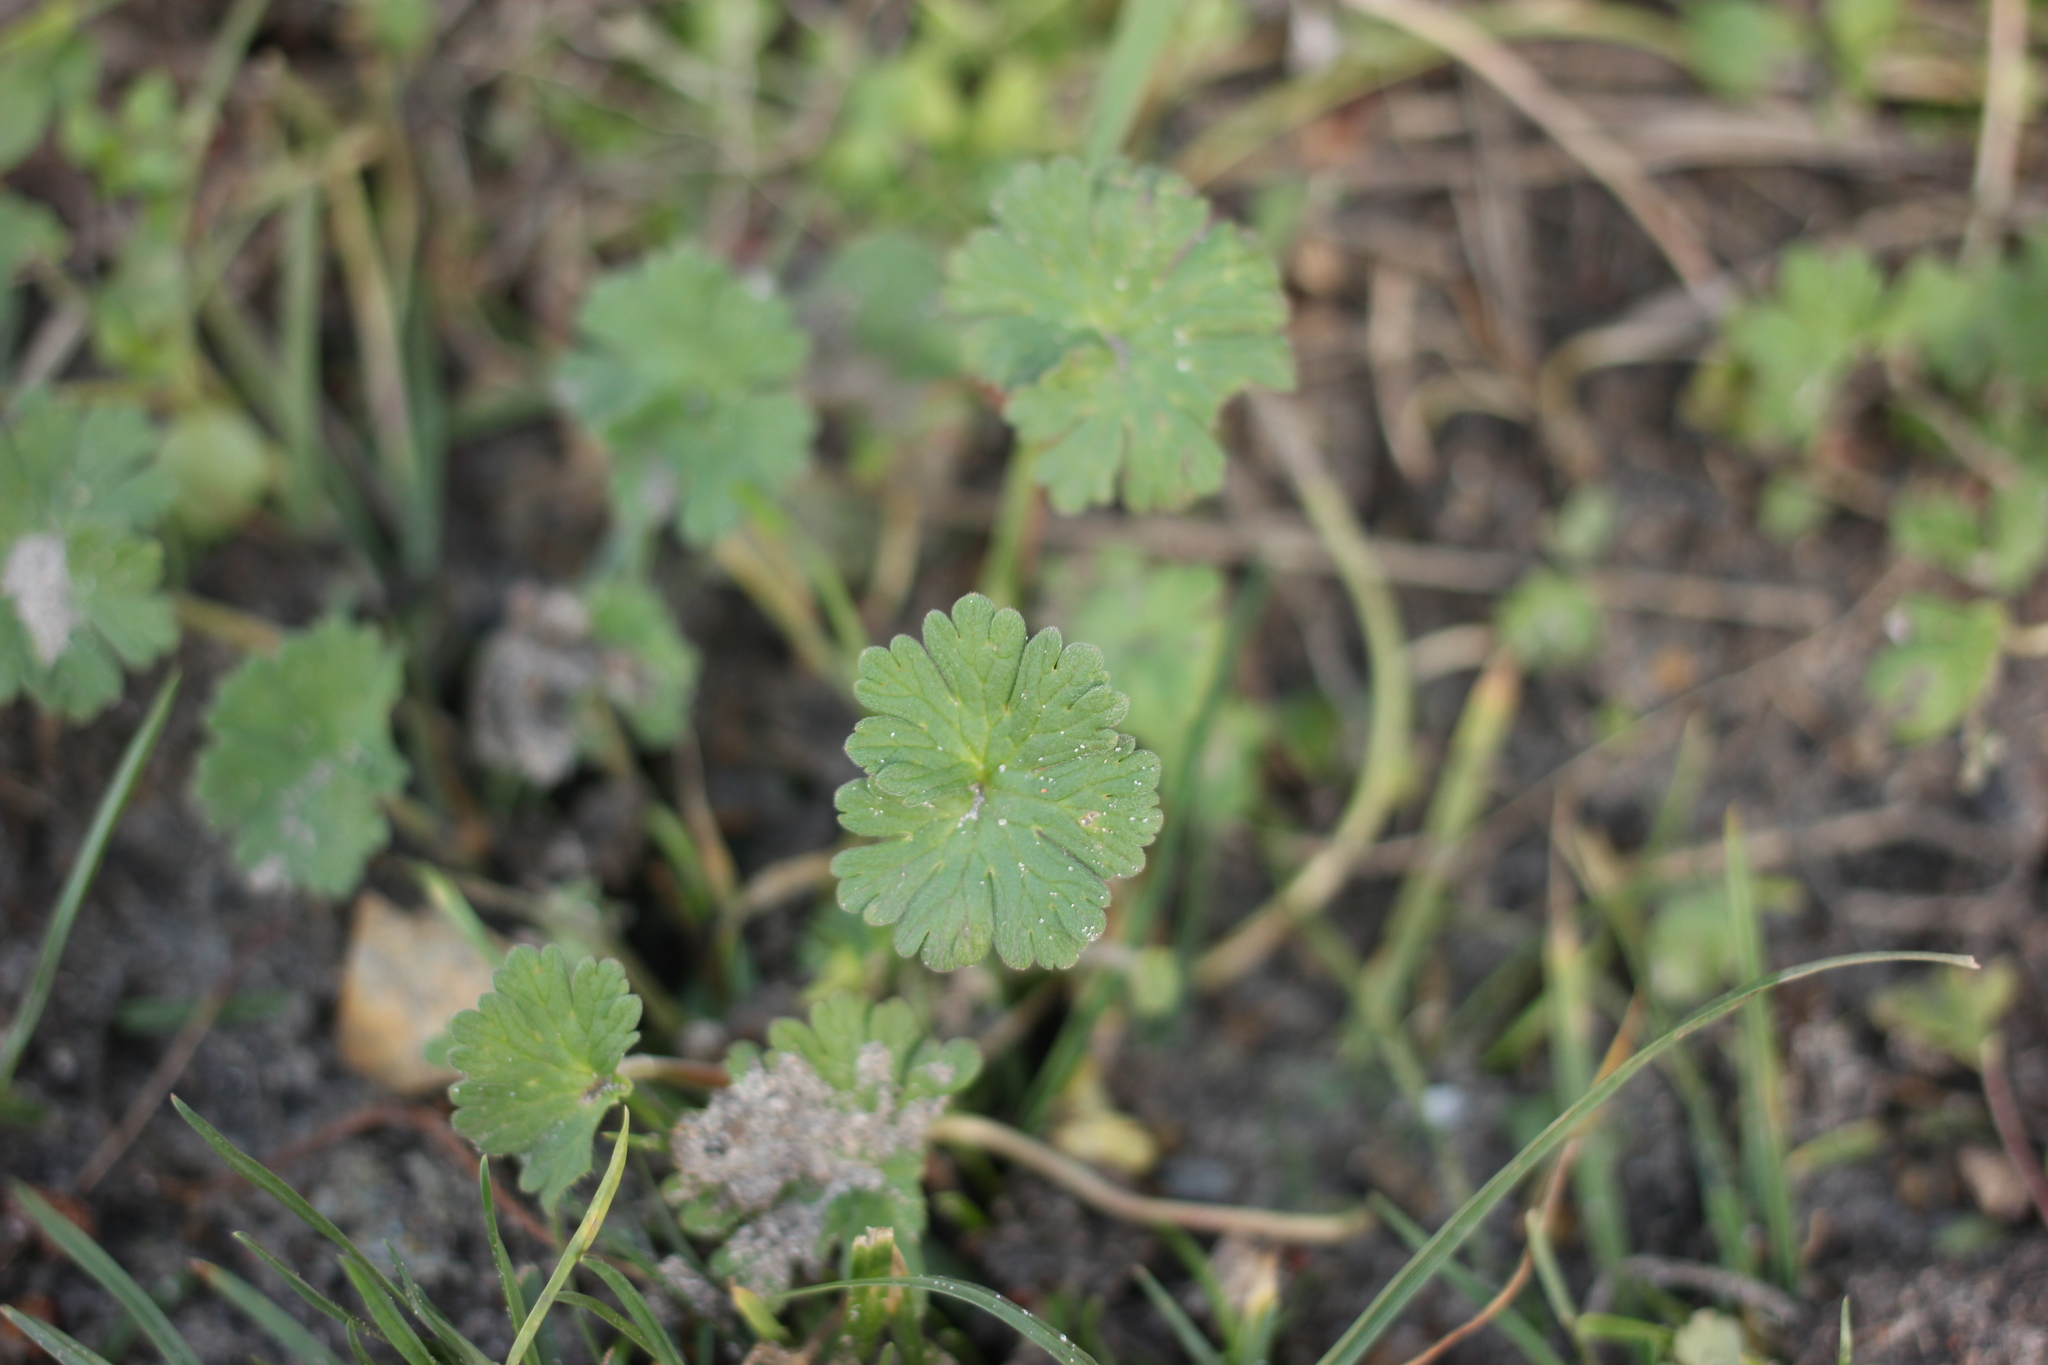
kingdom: Plantae
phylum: Tracheophyta
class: Magnoliopsida
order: Geraniales
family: Geraniaceae
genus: Geranium
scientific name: Geranium molle
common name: Dove's-foot crane's-bill
